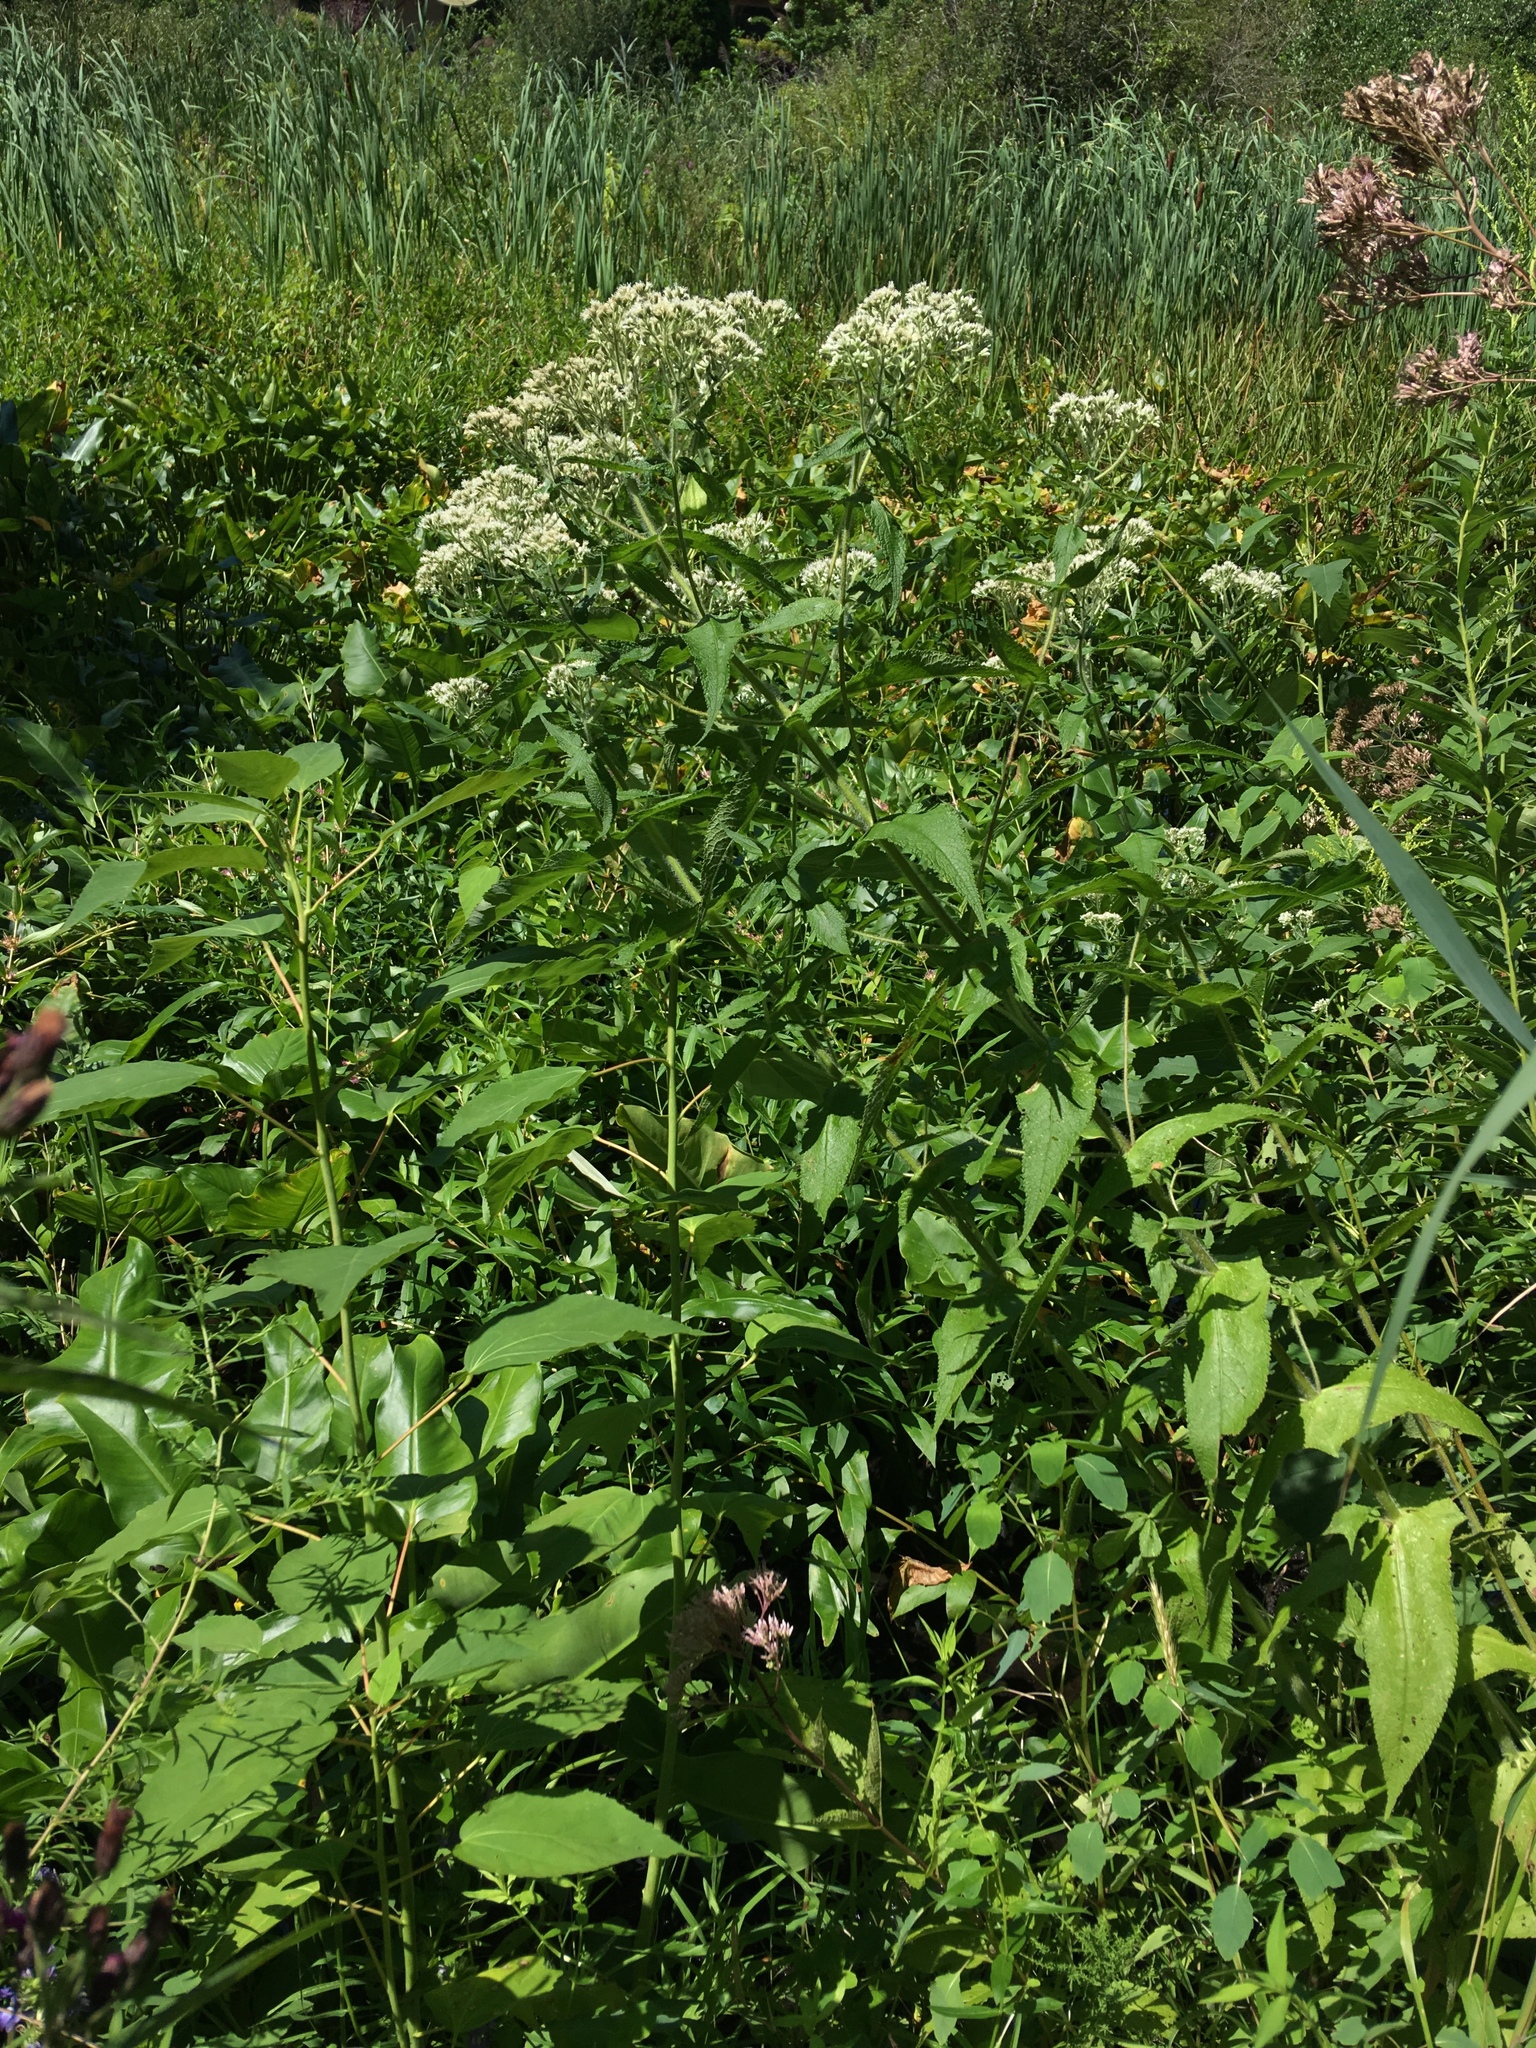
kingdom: Plantae
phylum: Tracheophyta
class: Magnoliopsida
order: Asterales
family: Asteraceae
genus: Eupatorium
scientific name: Eupatorium perfoliatum
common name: Boneset
